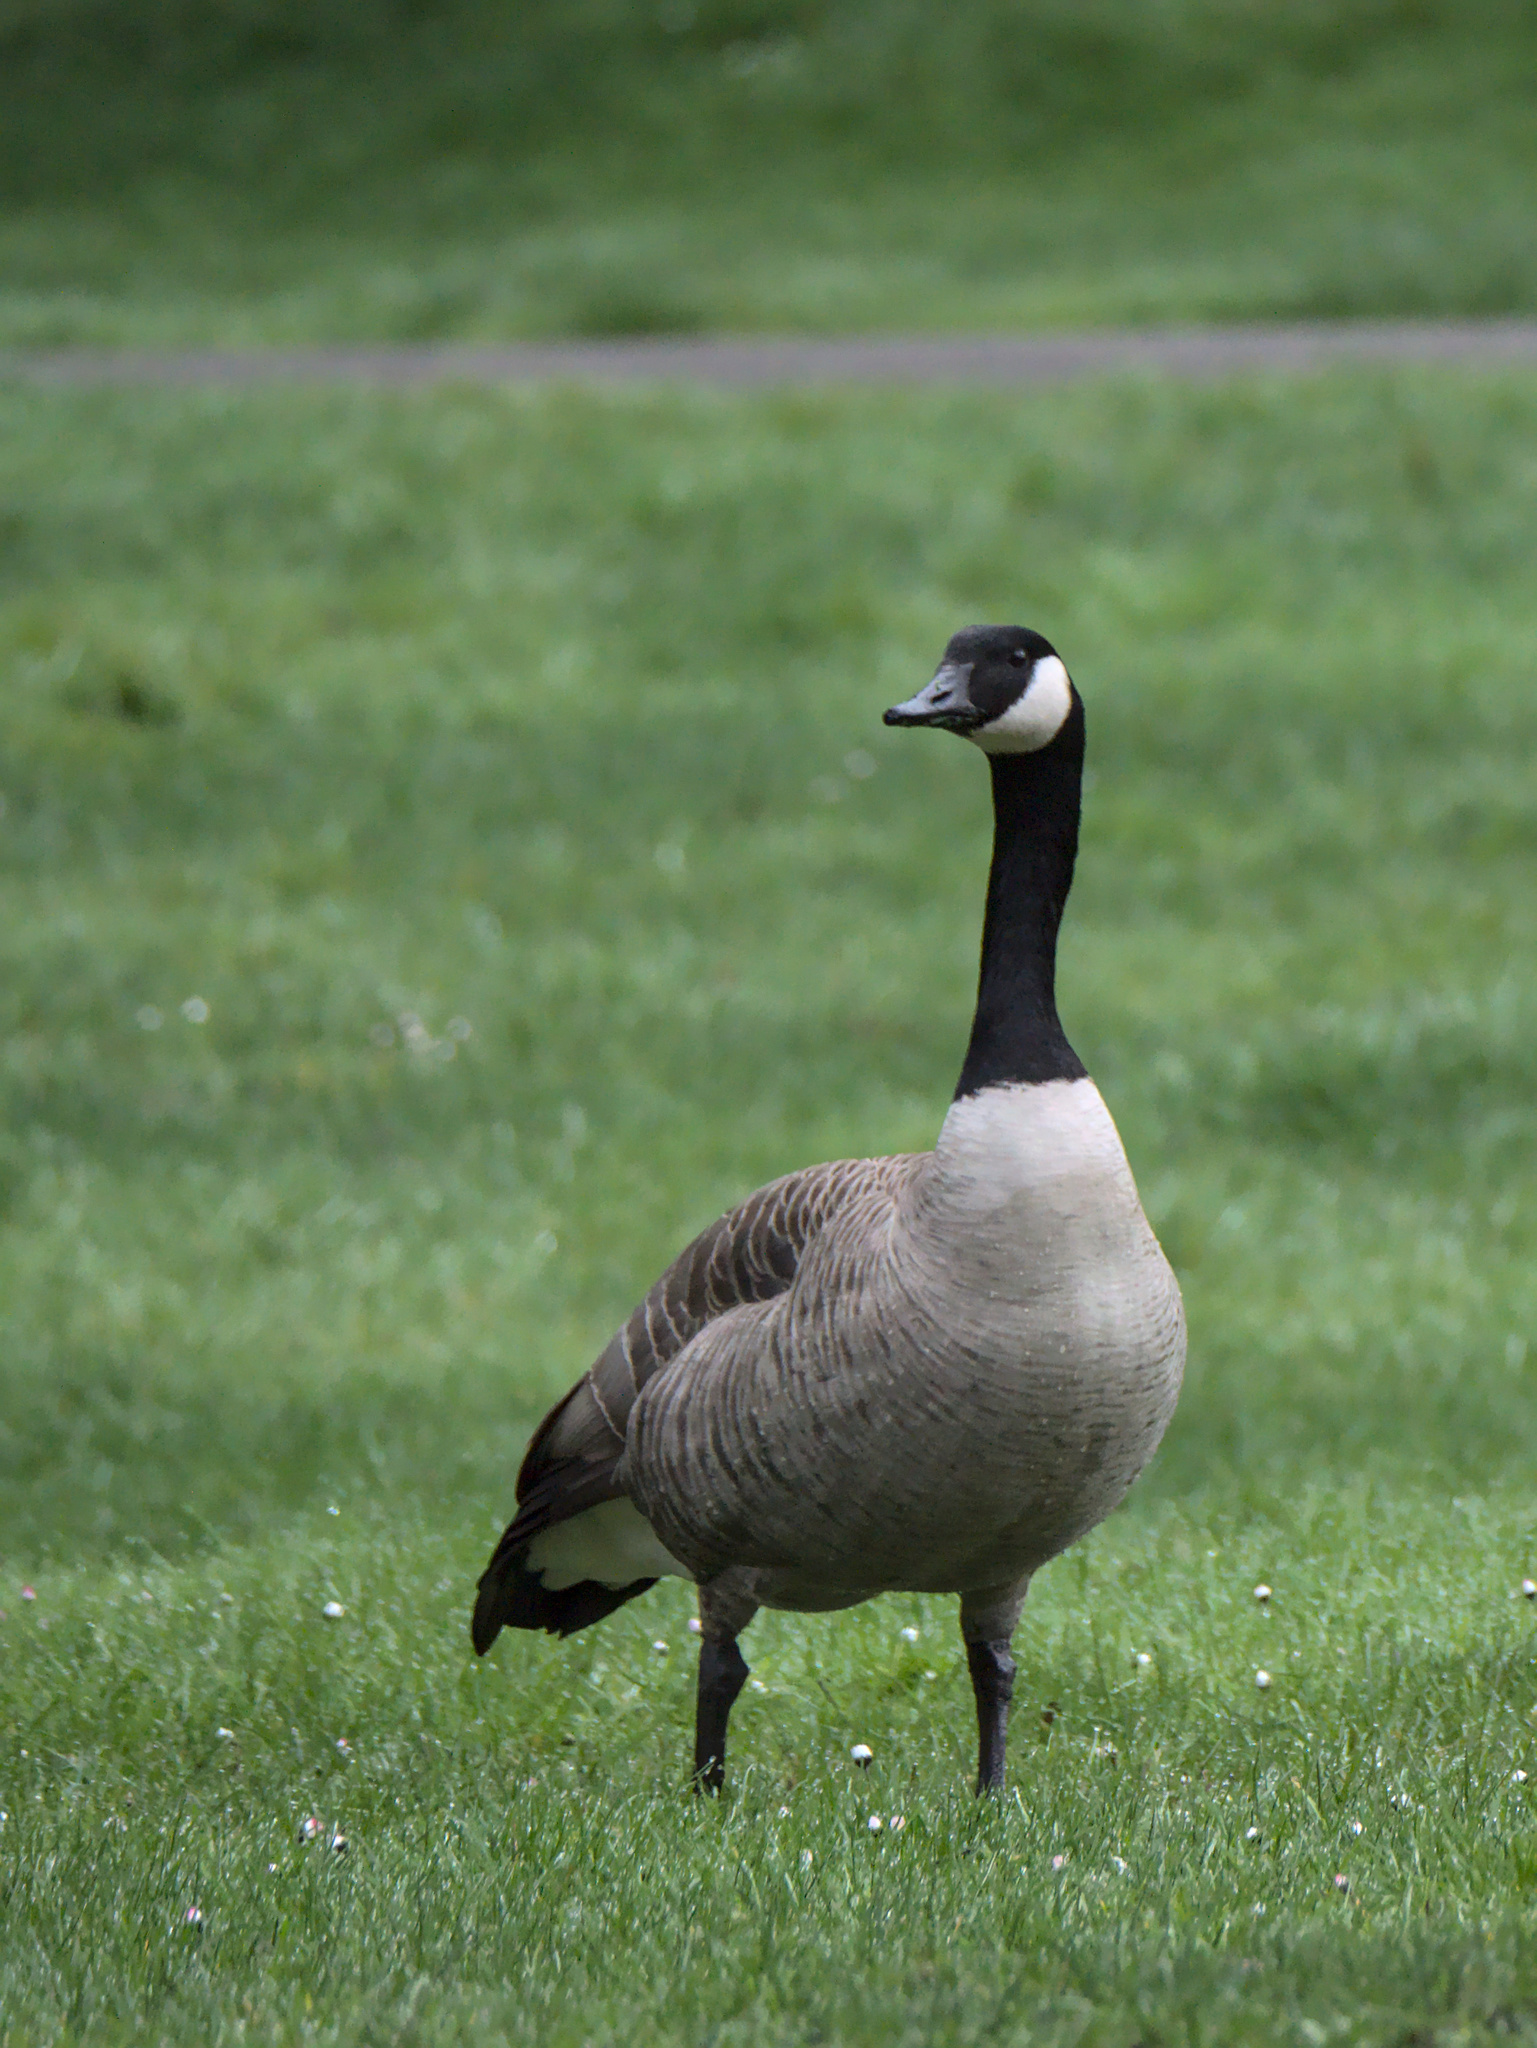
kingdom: Animalia
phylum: Chordata
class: Aves
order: Anseriformes
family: Anatidae
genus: Branta
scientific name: Branta canadensis
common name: Canada goose
